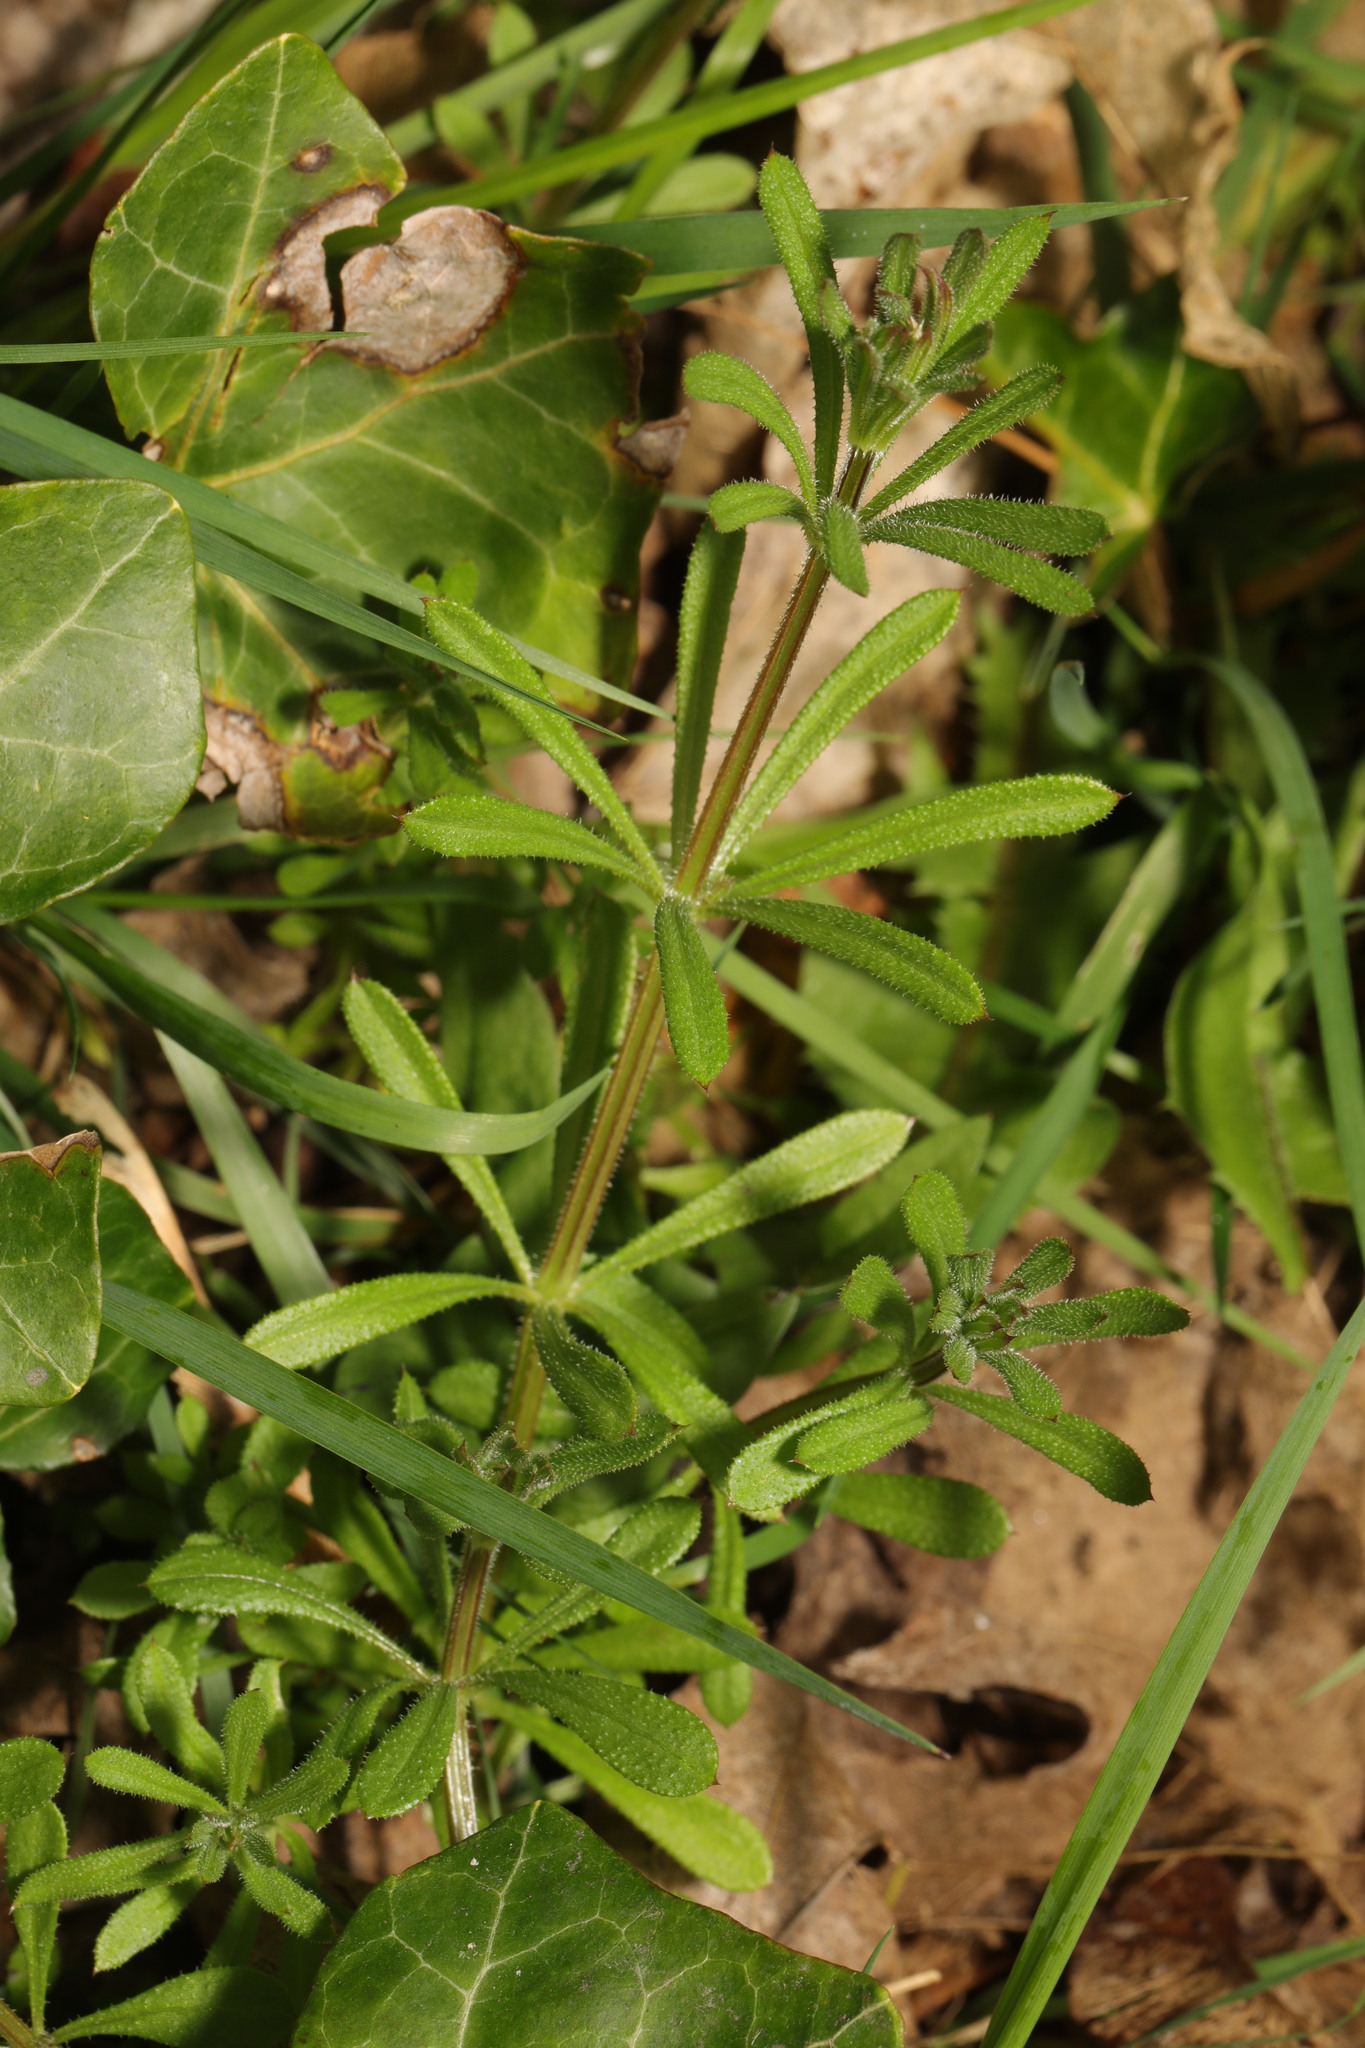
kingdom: Plantae
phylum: Tracheophyta
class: Magnoliopsida
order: Gentianales
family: Rubiaceae
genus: Galium
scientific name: Galium aparine
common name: Cleavers
